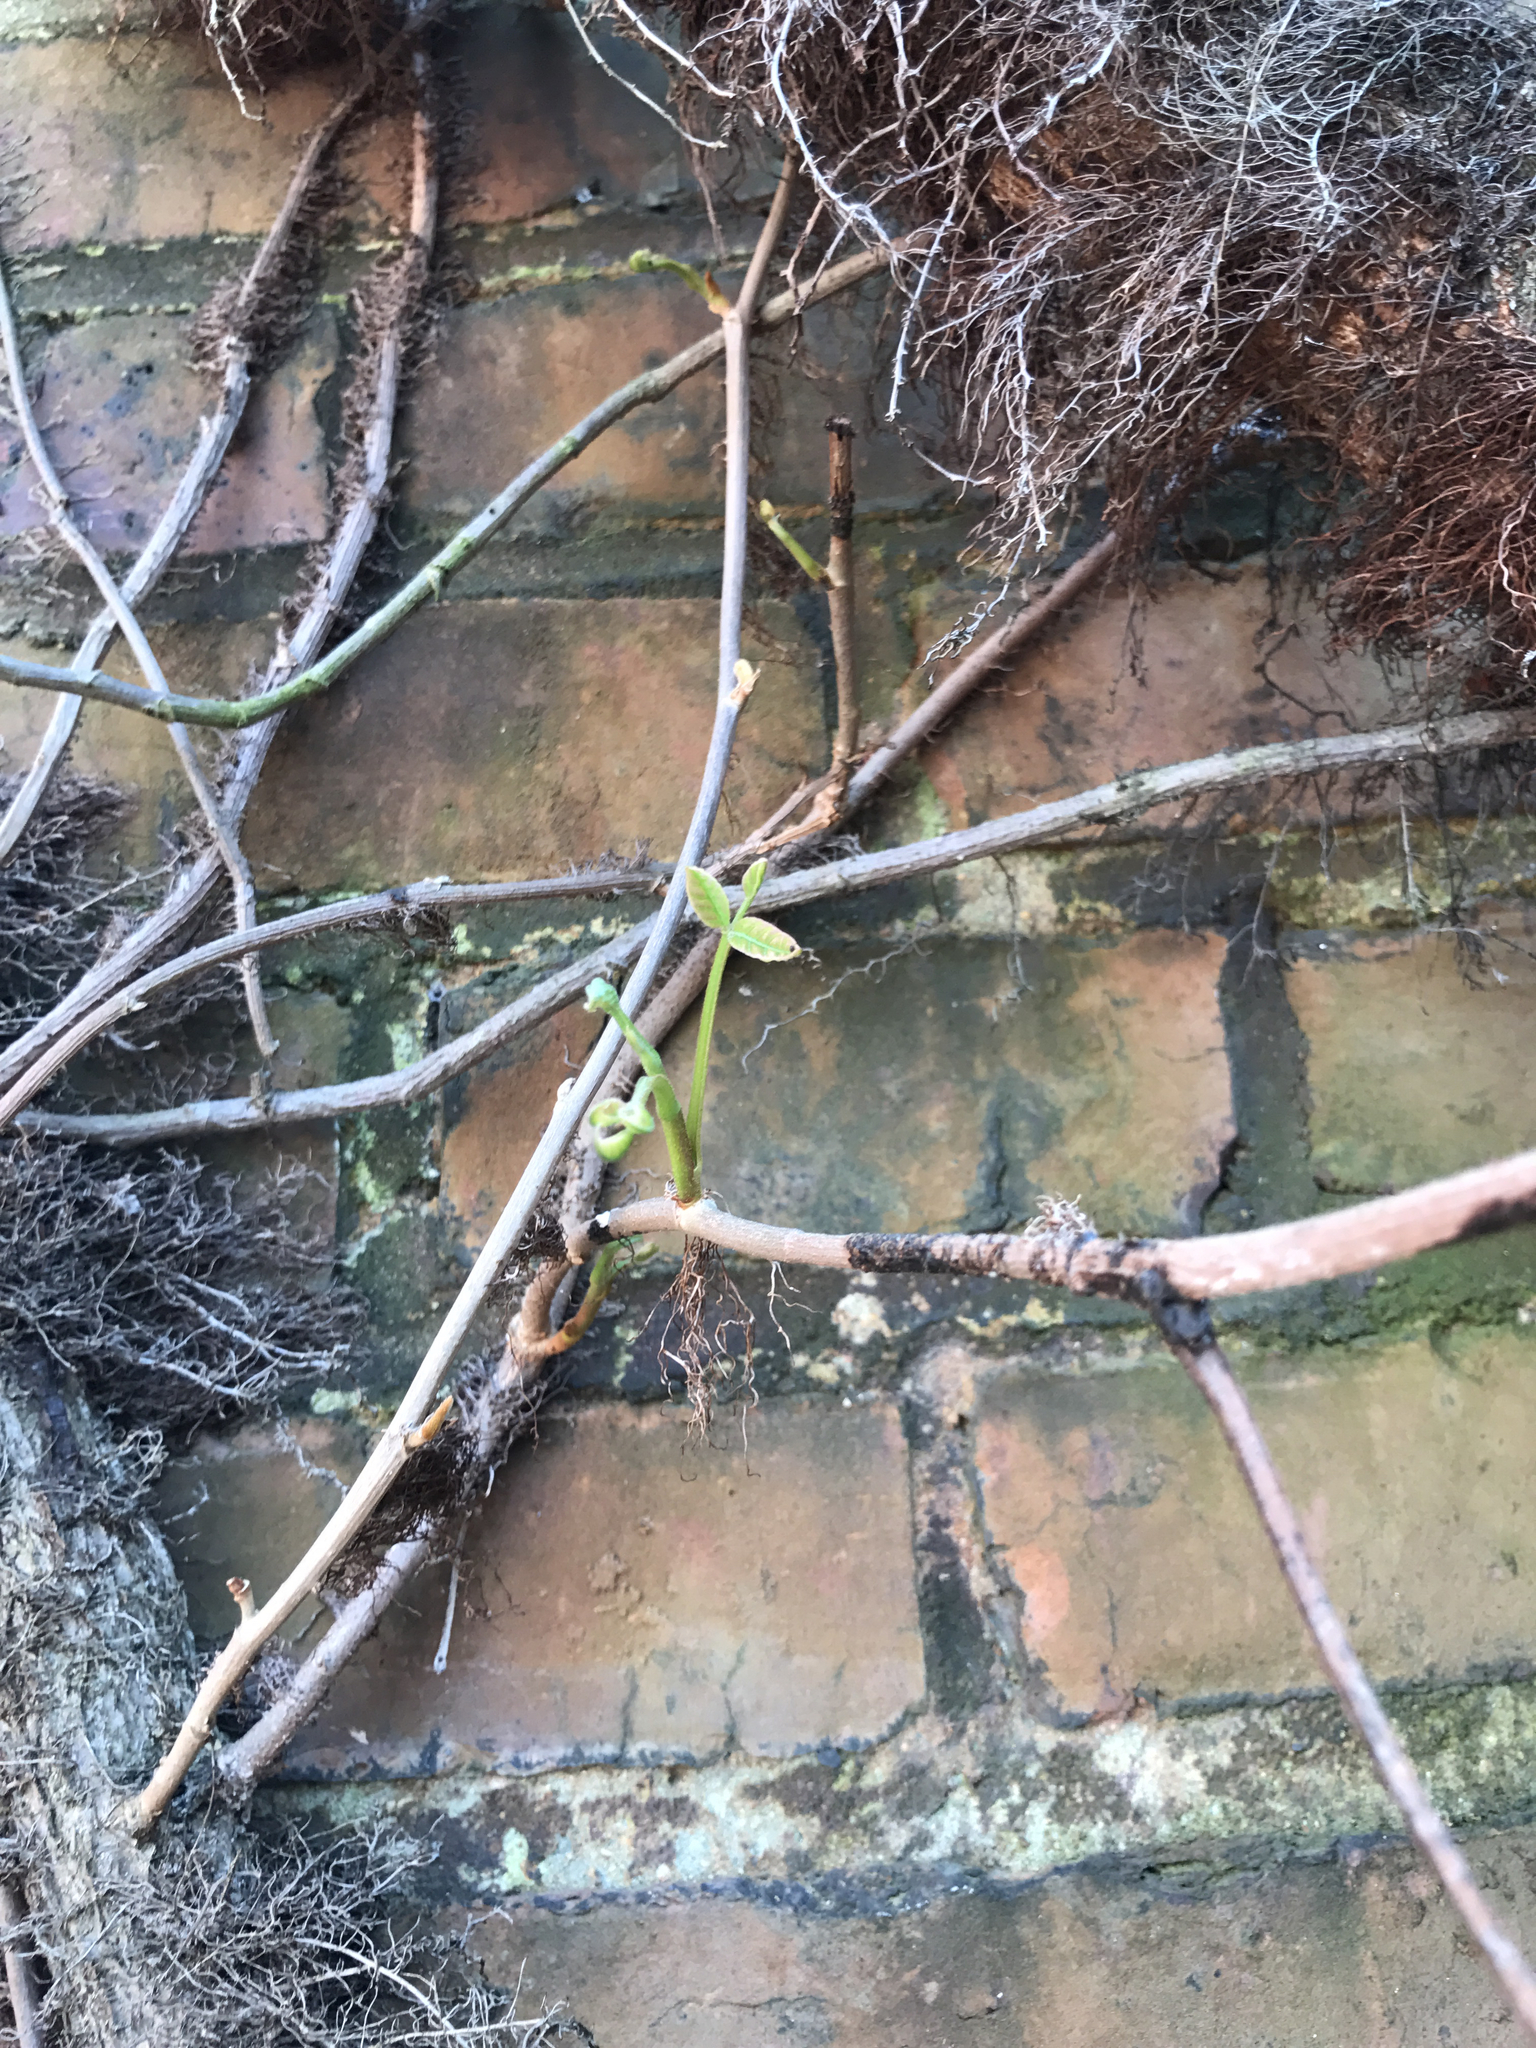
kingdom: Plantae
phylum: Tracheophyta
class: Magnoliopsida
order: Sapindales
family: Anacardiaceae
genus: Toxicodendron
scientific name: Toxicodendron radicans
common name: Poison ivy
